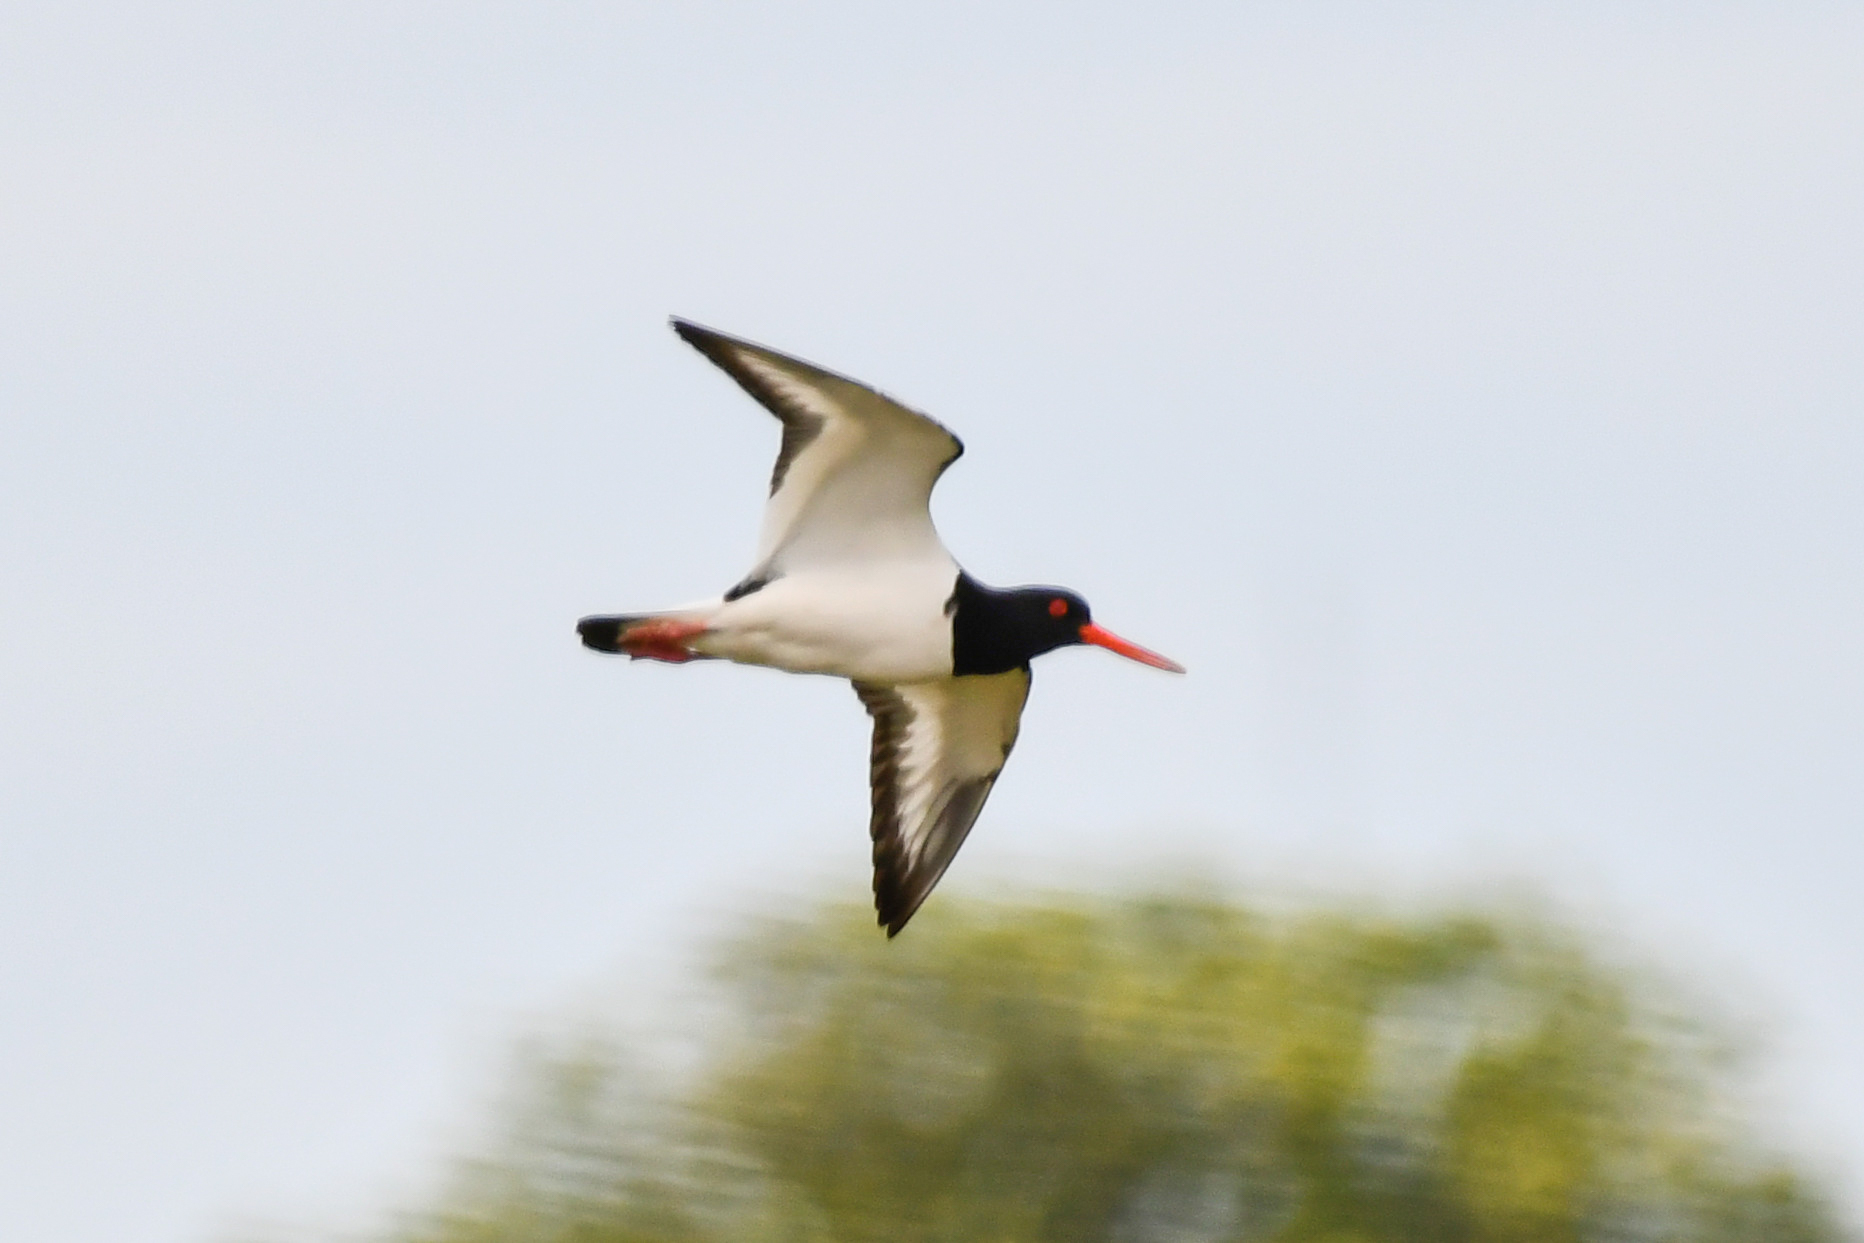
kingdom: Animalia
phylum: Chordata
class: Aves
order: Charadriiformes
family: Haematopodidae
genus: Haematopus
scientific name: Haematopus ostralegus
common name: Eurasian oystercatcher
